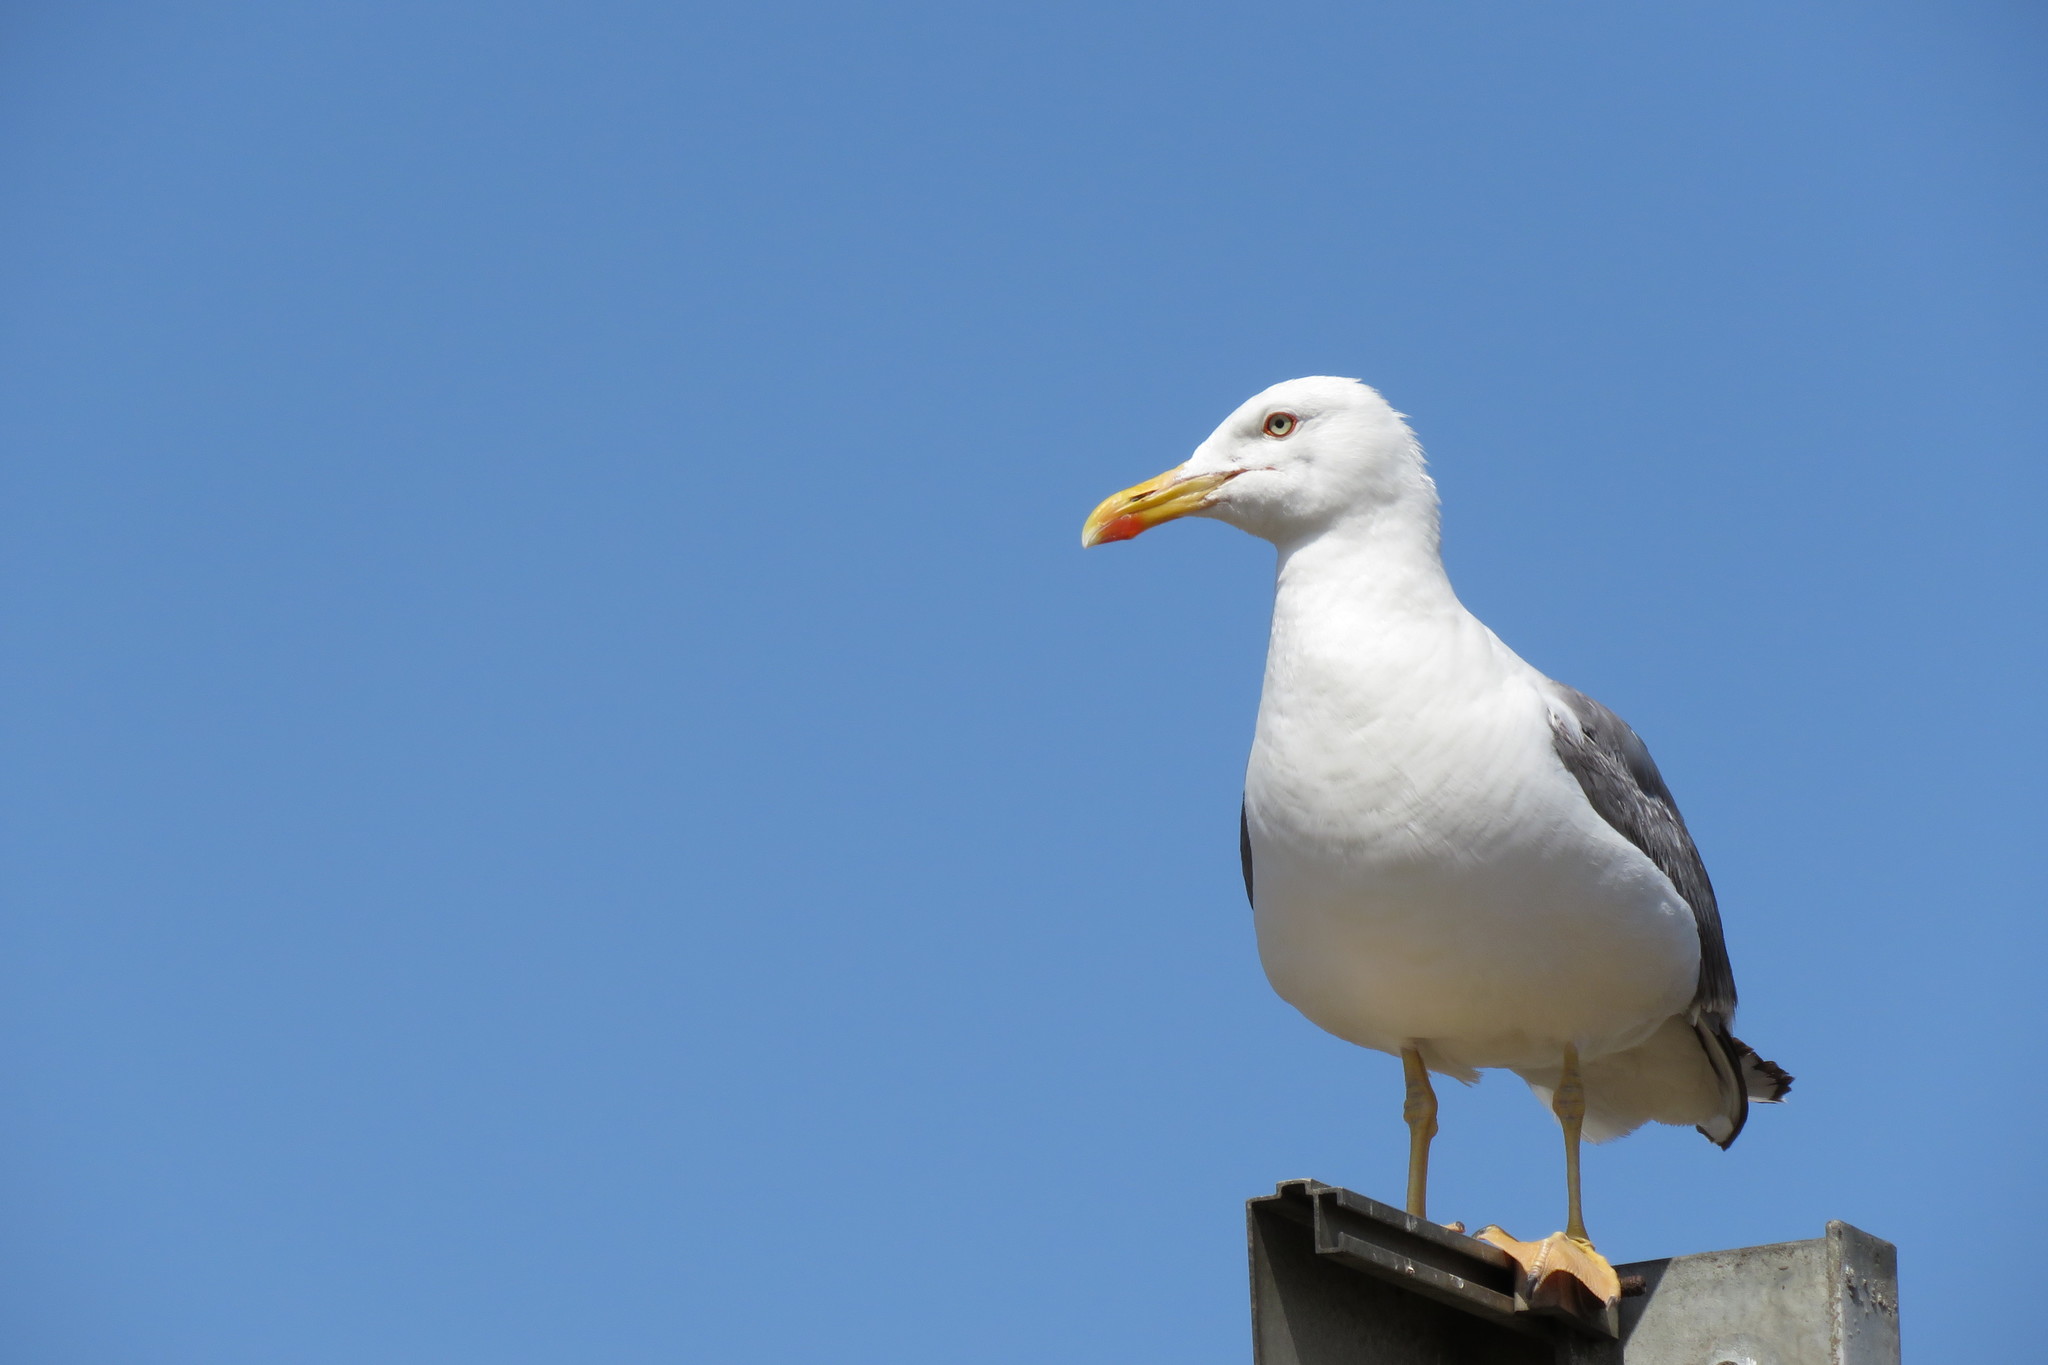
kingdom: Animalia
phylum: Chordata
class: Aves
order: Charadriiformes
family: Laridae
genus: Larus
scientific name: Larus michahellis
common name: Yellow-legged gull
